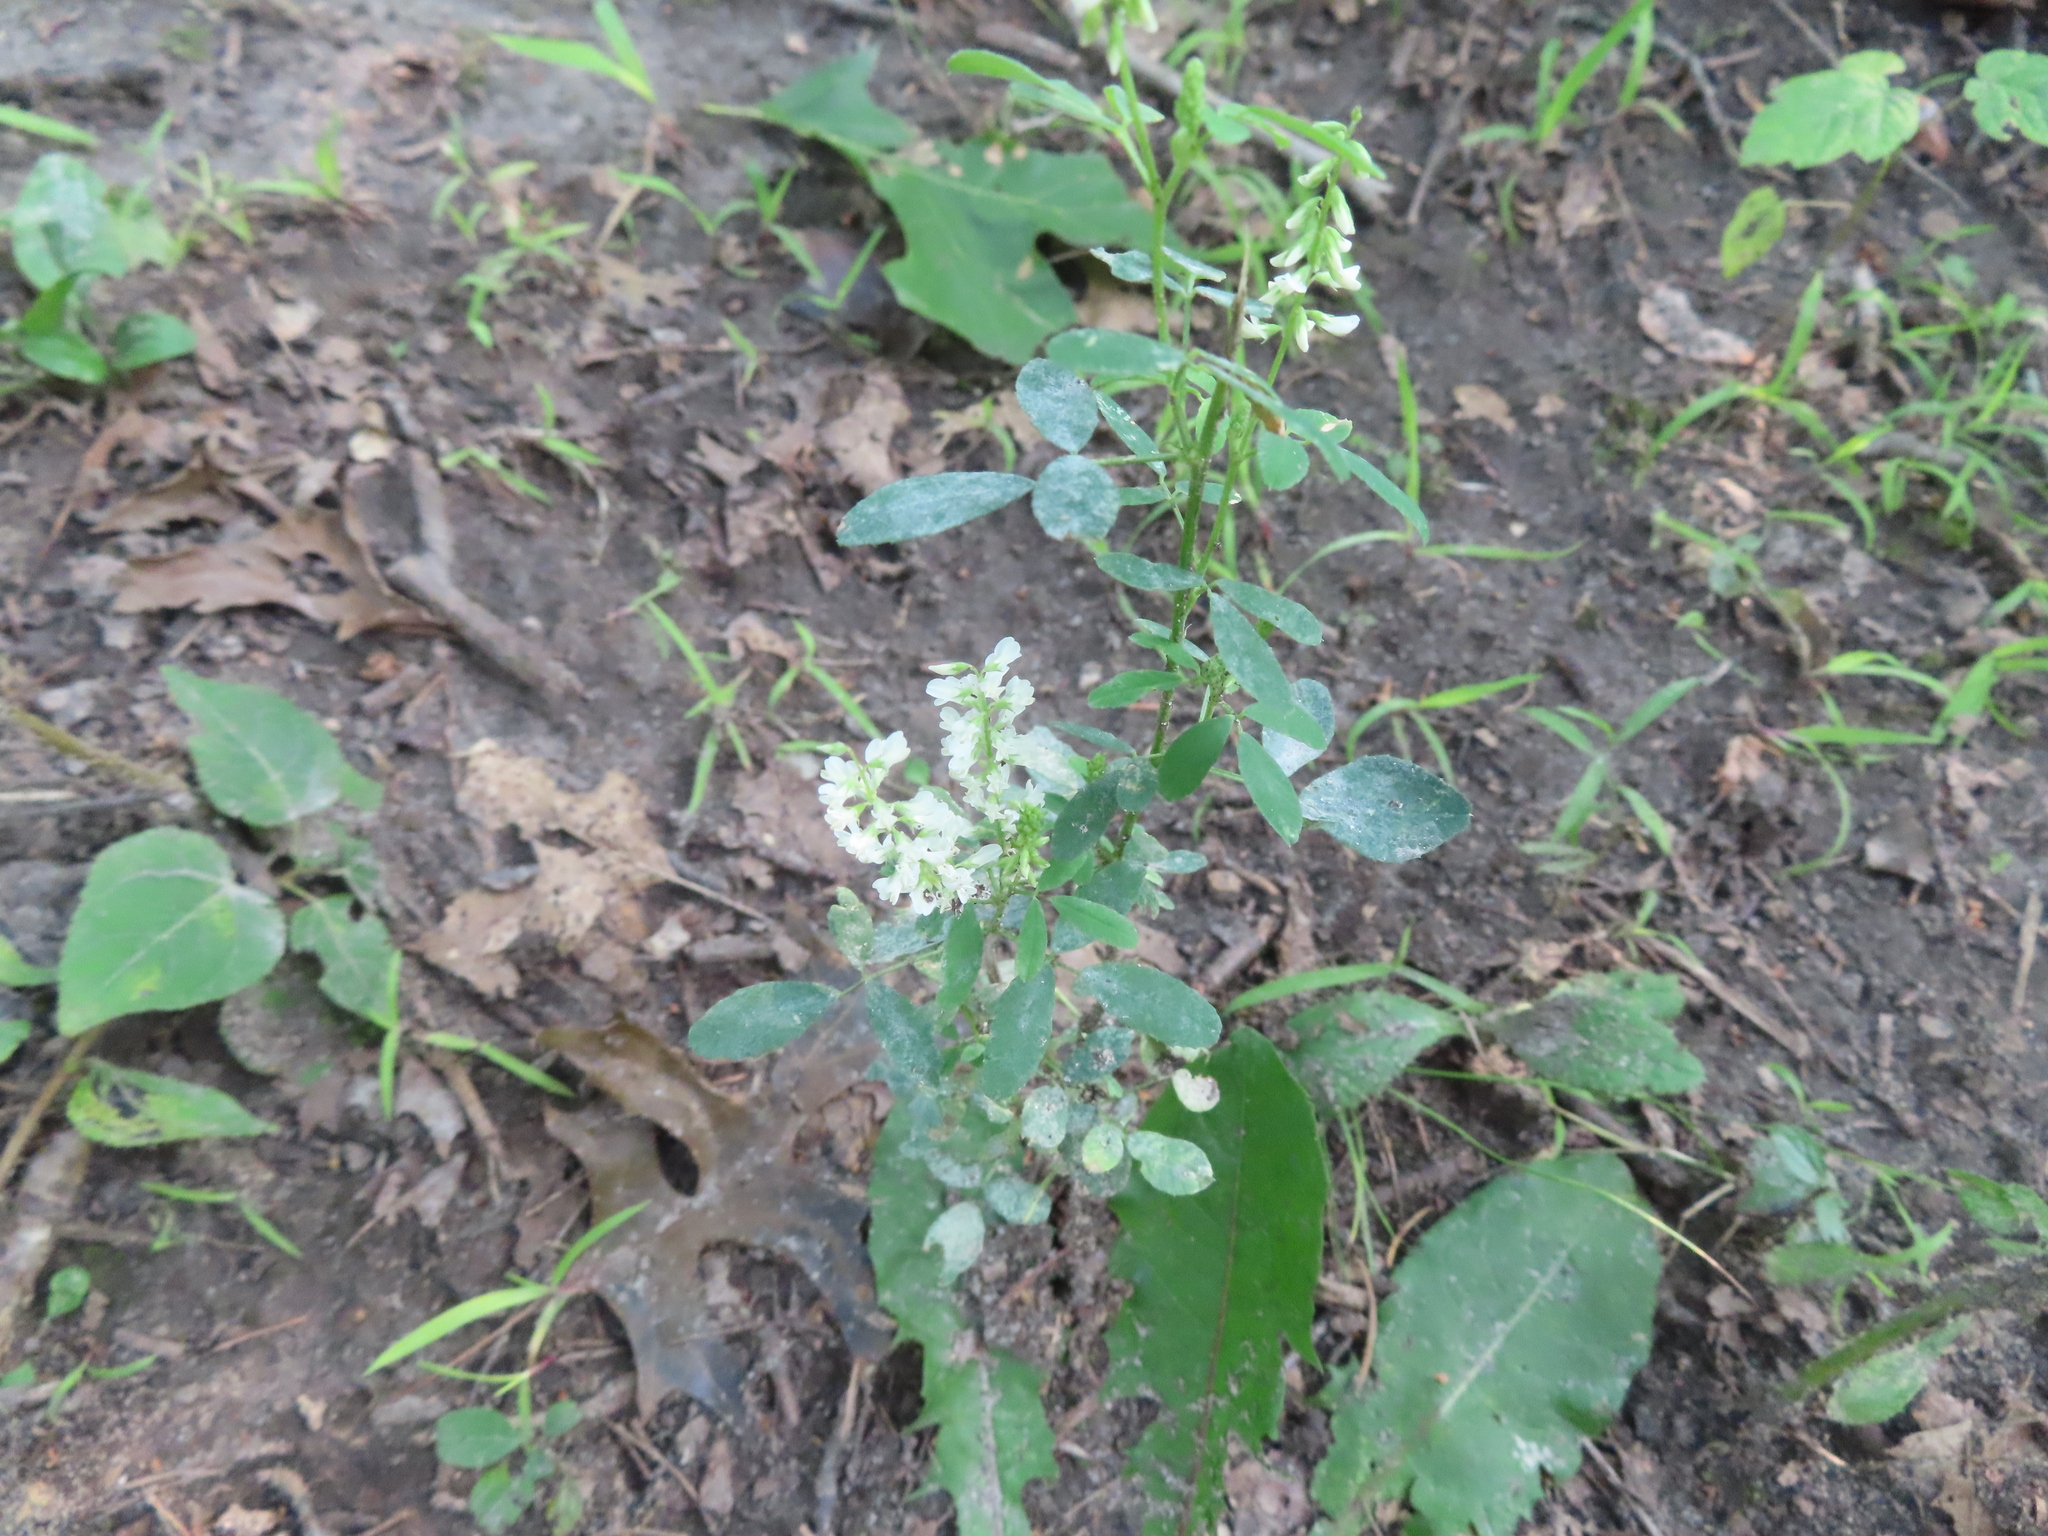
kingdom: Plantae
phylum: Tracheophyta
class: Magnoliopsida
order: Fabales
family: Fabaceae
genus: Melilotus
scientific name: Melilotus albus
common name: White melilot
